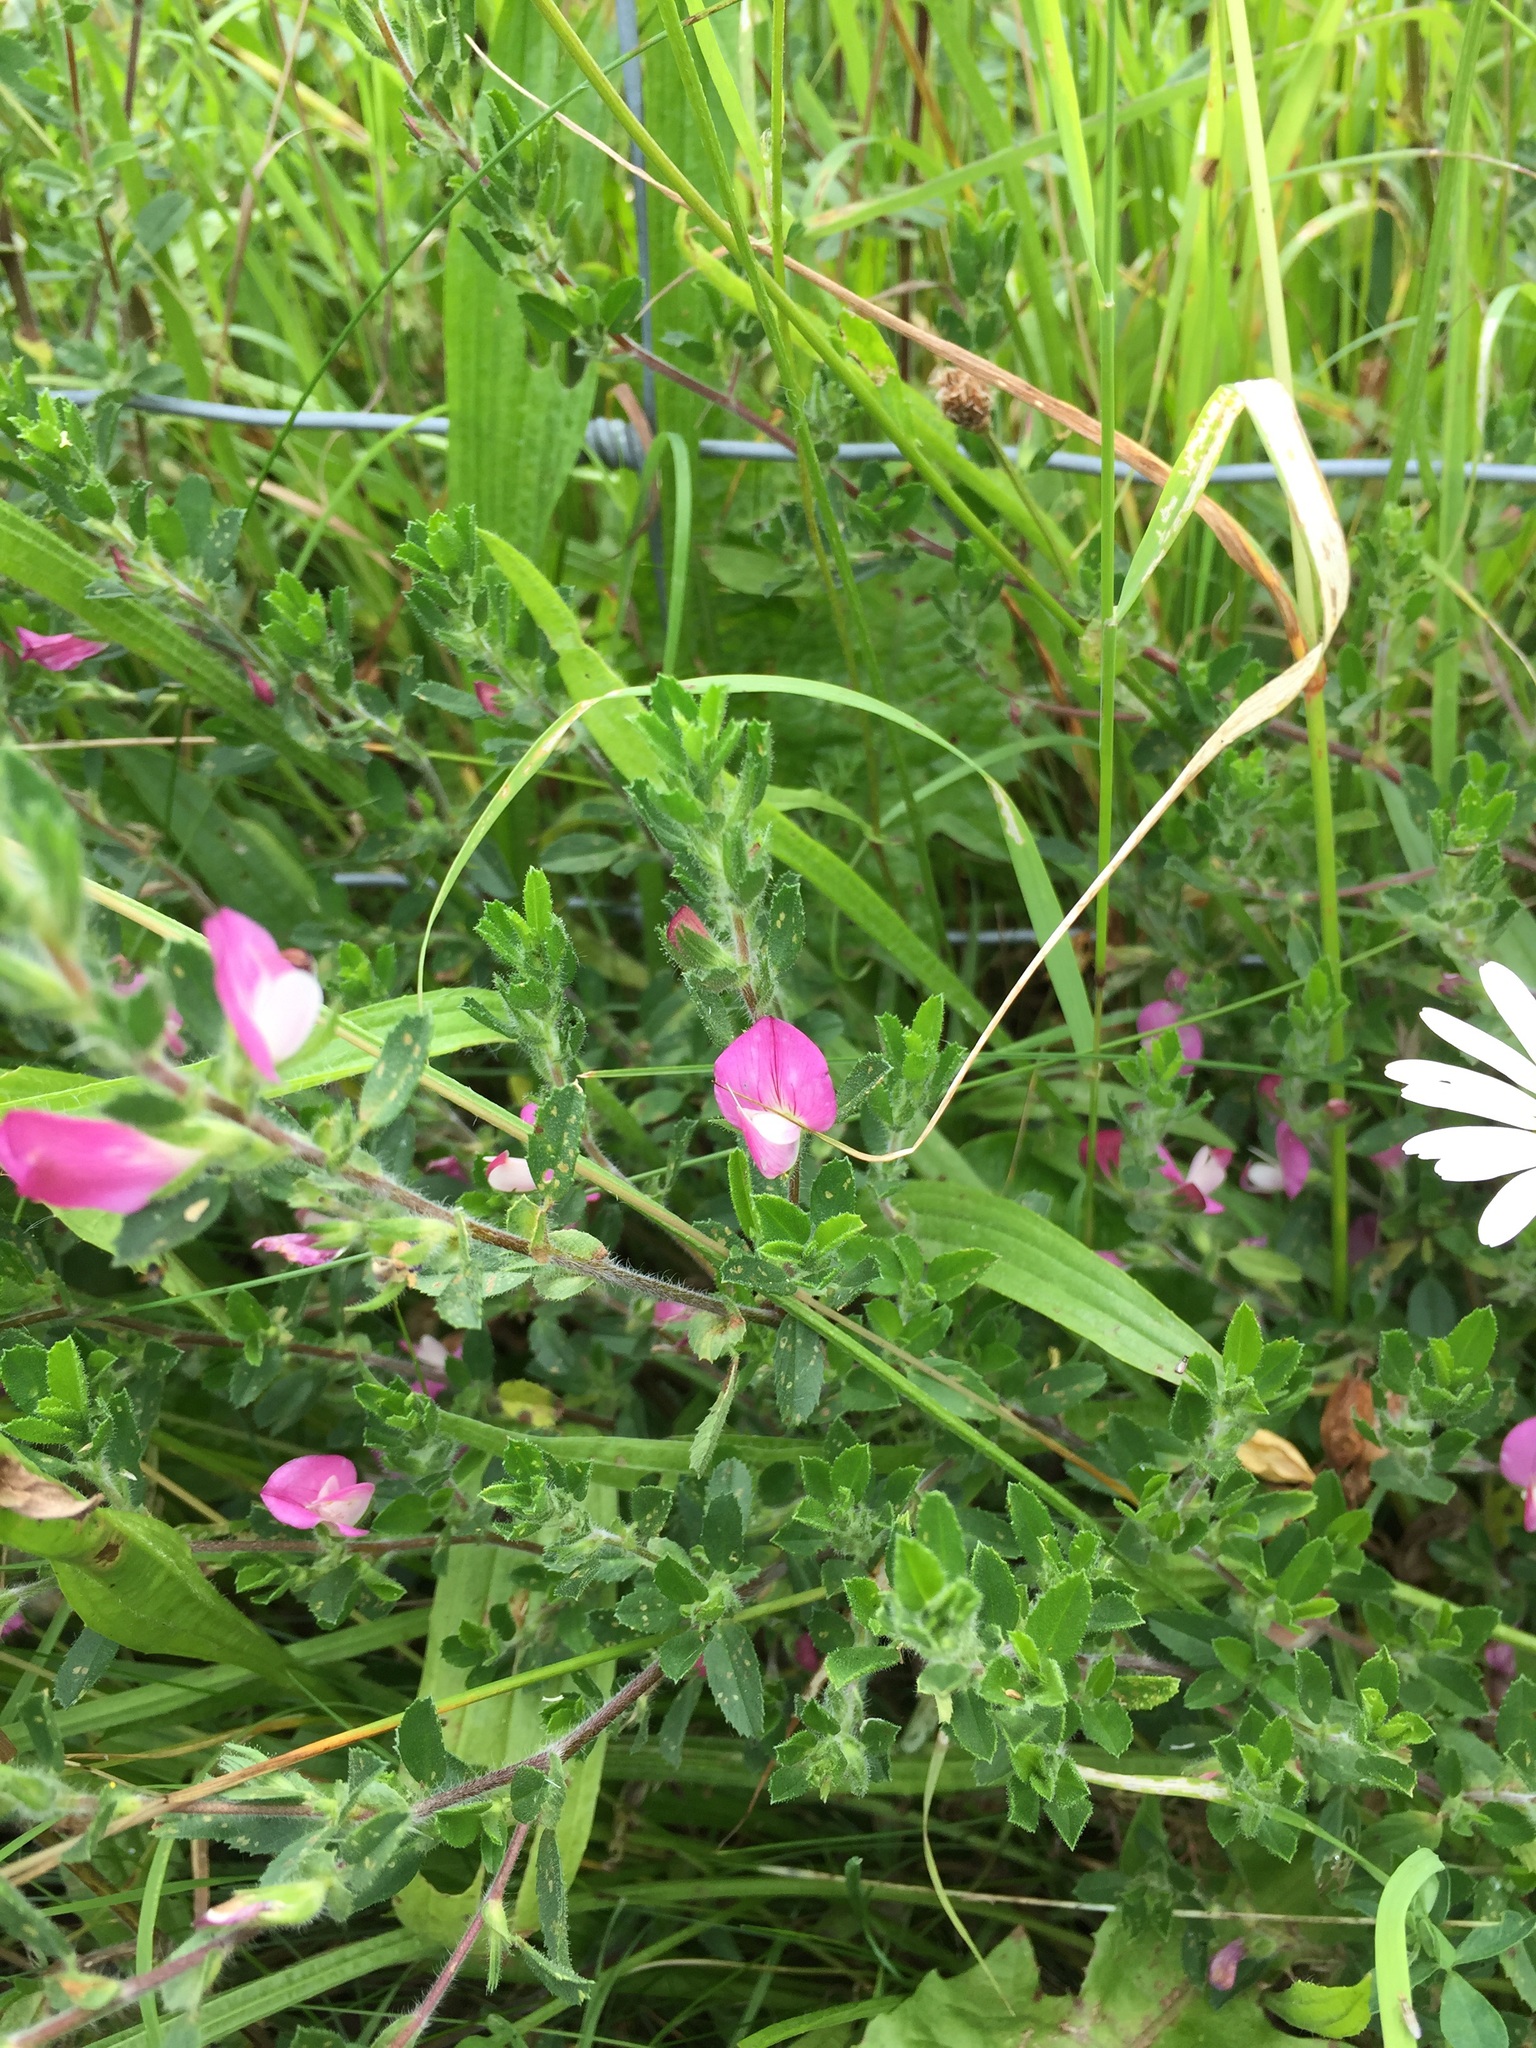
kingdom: Plantae
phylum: Tracheophyta
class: Magnoliopsida
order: Fabales
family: Fabaceae
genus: Ononis
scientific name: Ononis spinosa
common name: Spiny restharrow
